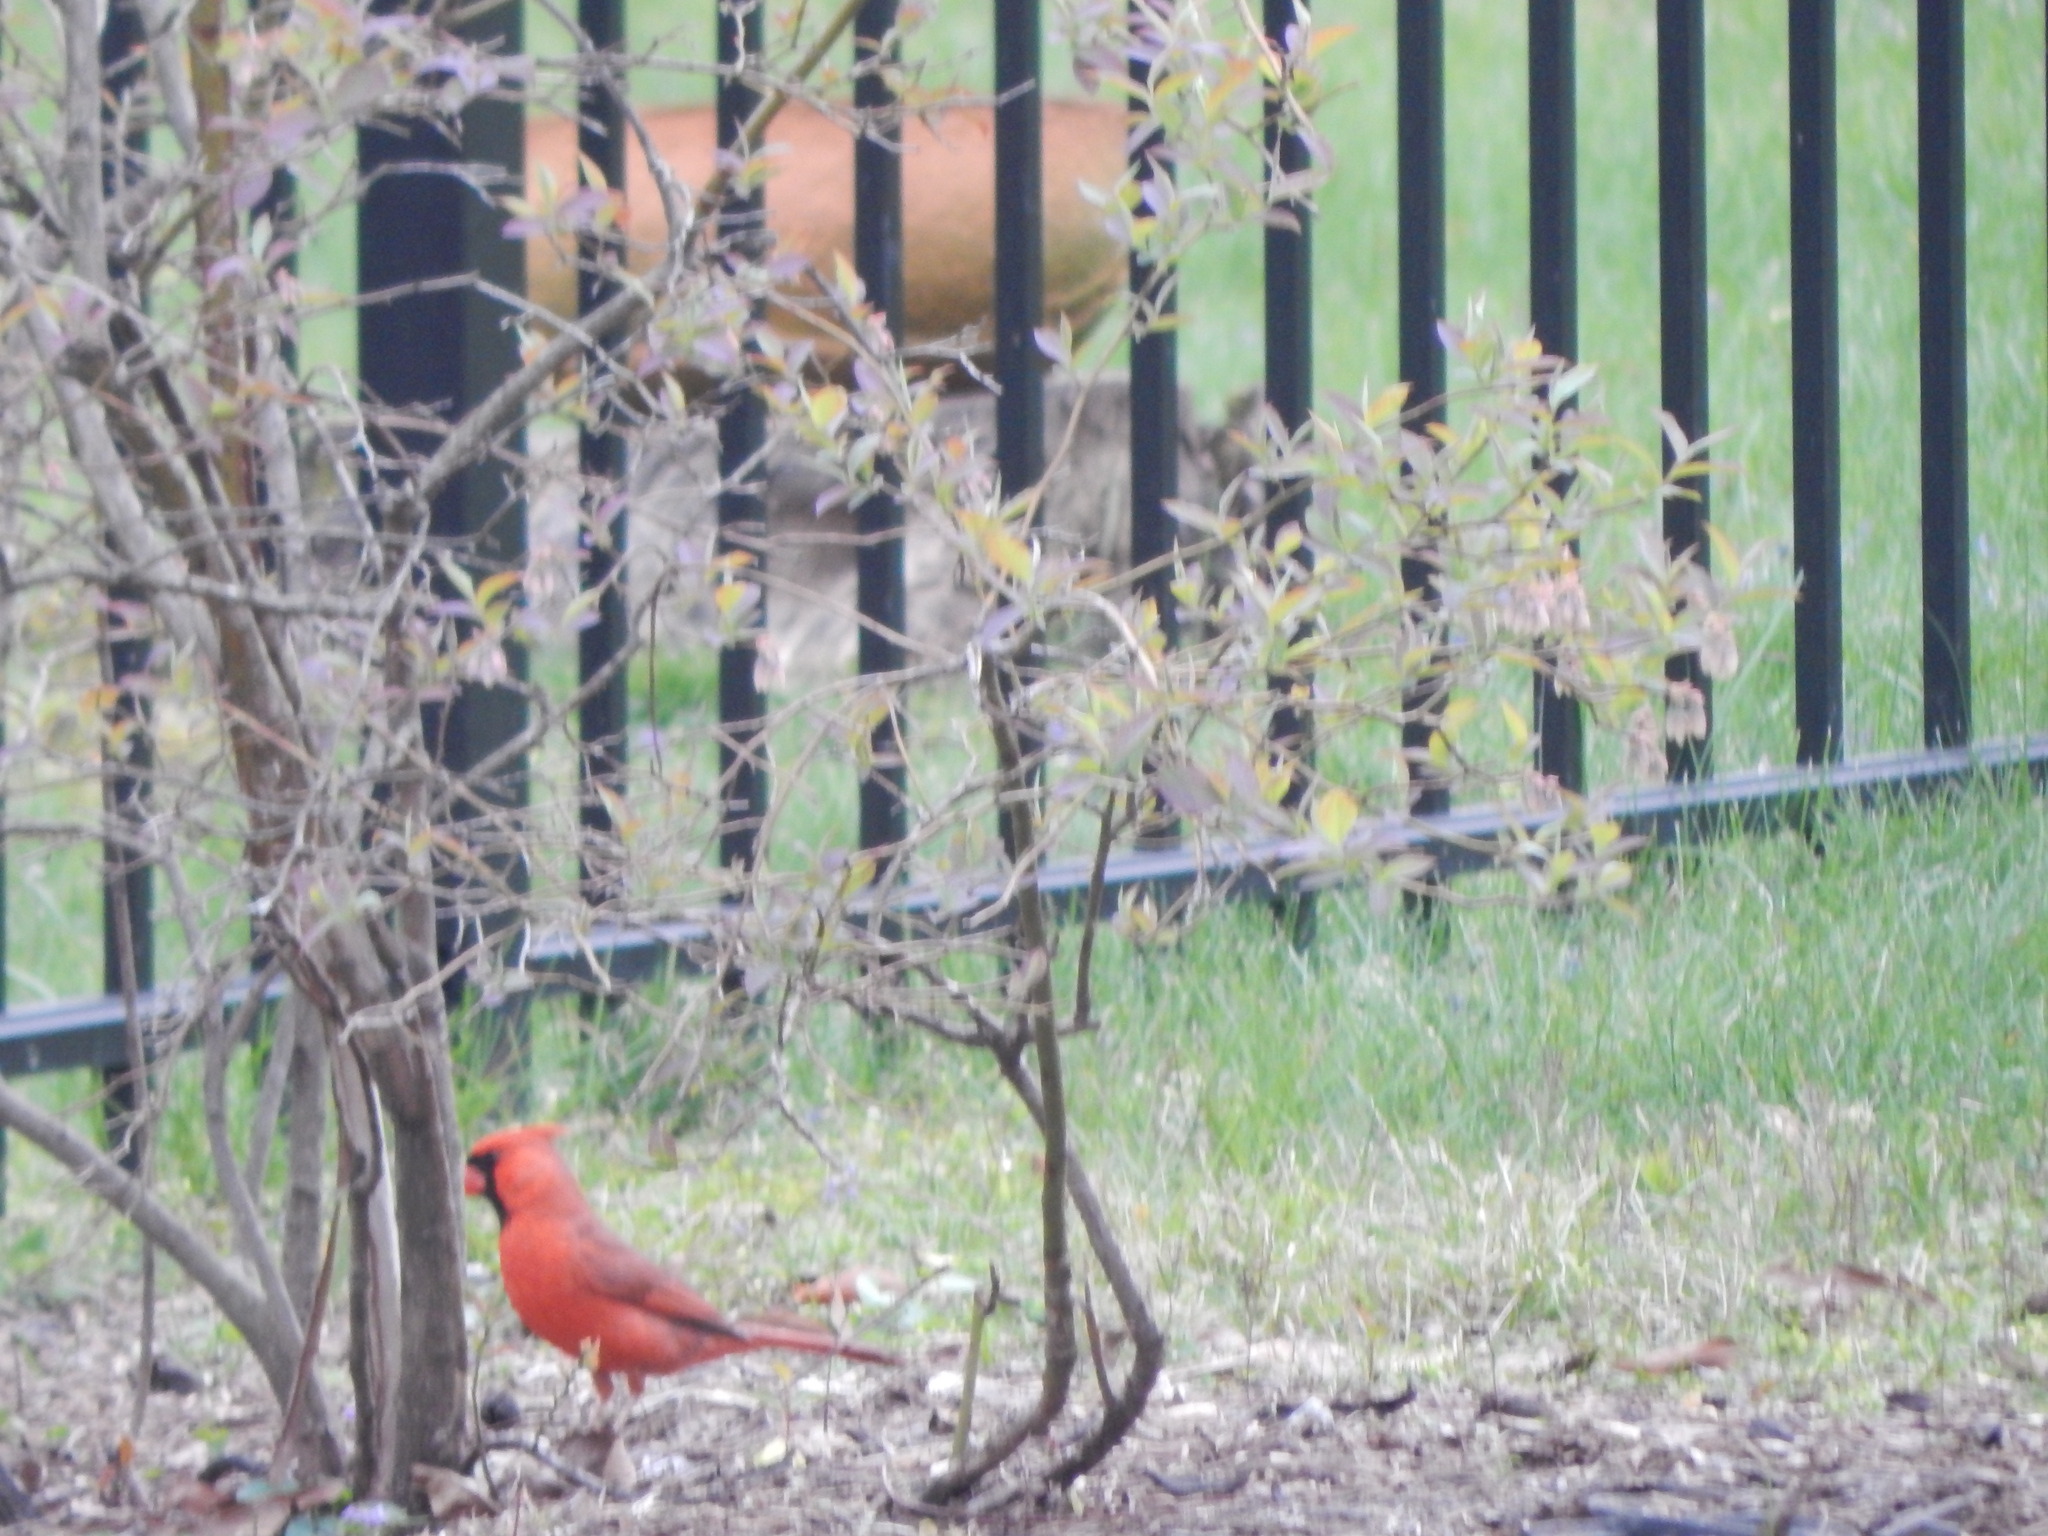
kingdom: Animalia
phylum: Chordata
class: Aves
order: Passeriformes
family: Cardinalidae
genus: Cardinalis
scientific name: Cardinalis cardinalis
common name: Northern cardinal
